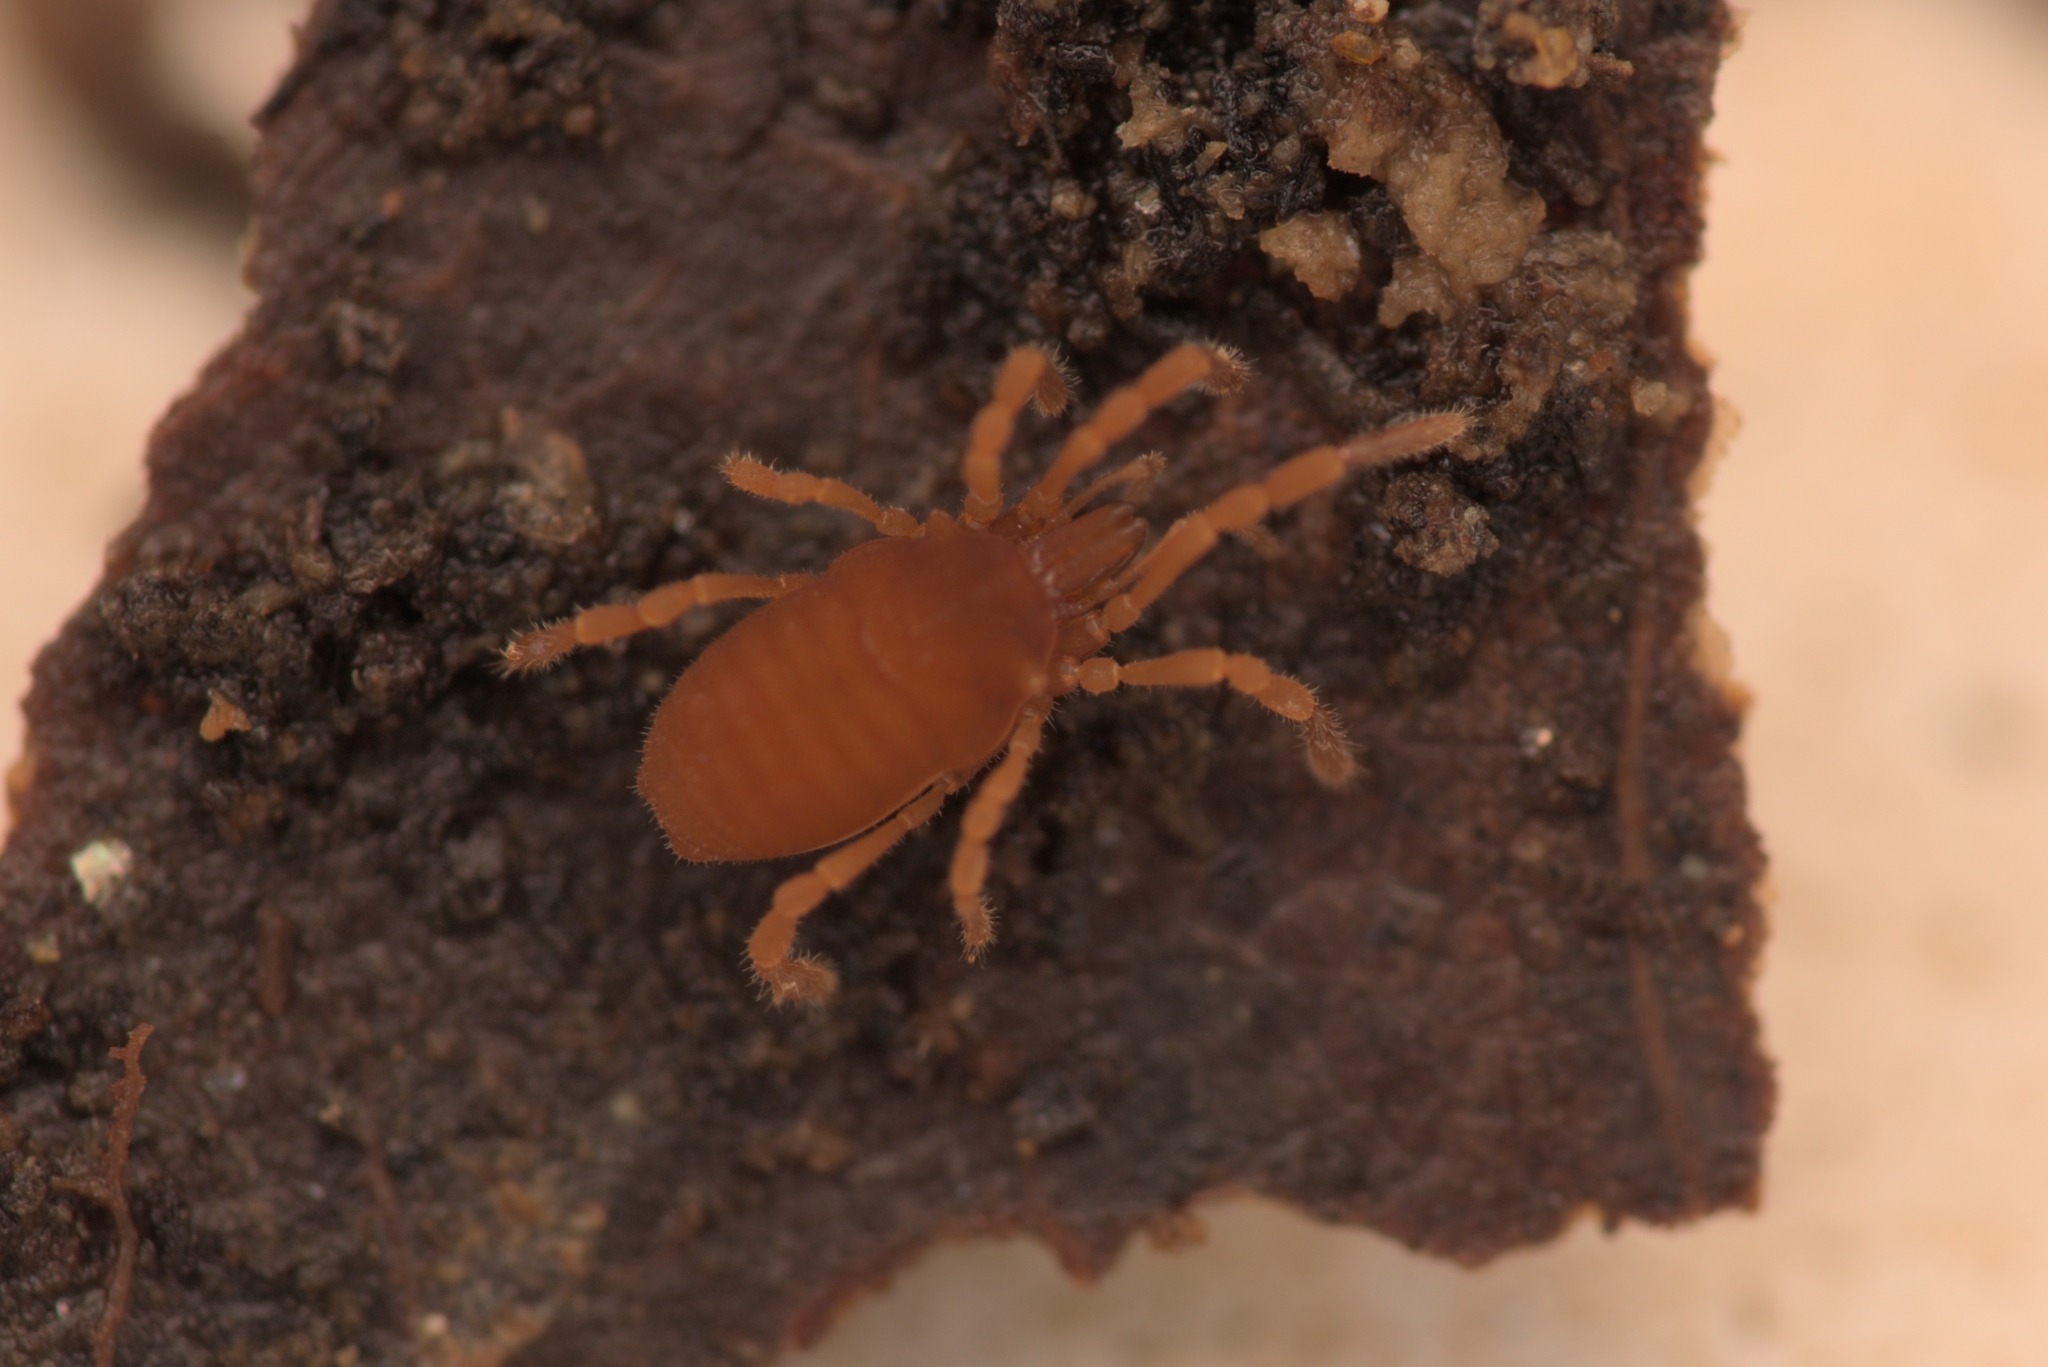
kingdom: Animalia
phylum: Arthropoda
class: Arachnida
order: Opiliones
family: Sironidae
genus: Siro
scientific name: Siro rubens
